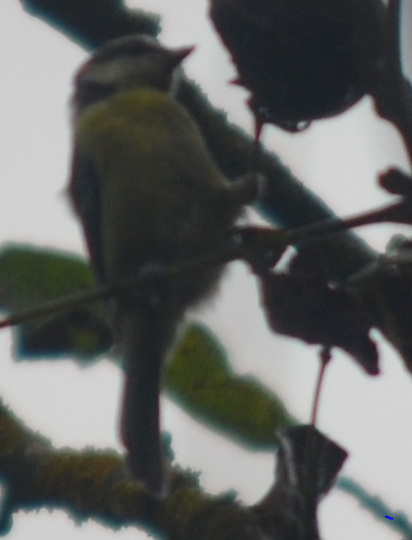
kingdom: Animalia
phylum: Chordata
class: Aves
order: Passeriformes
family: Paridae
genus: Cyanistes
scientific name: Cyanistes caeruleus
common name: Eurasian blue tit
